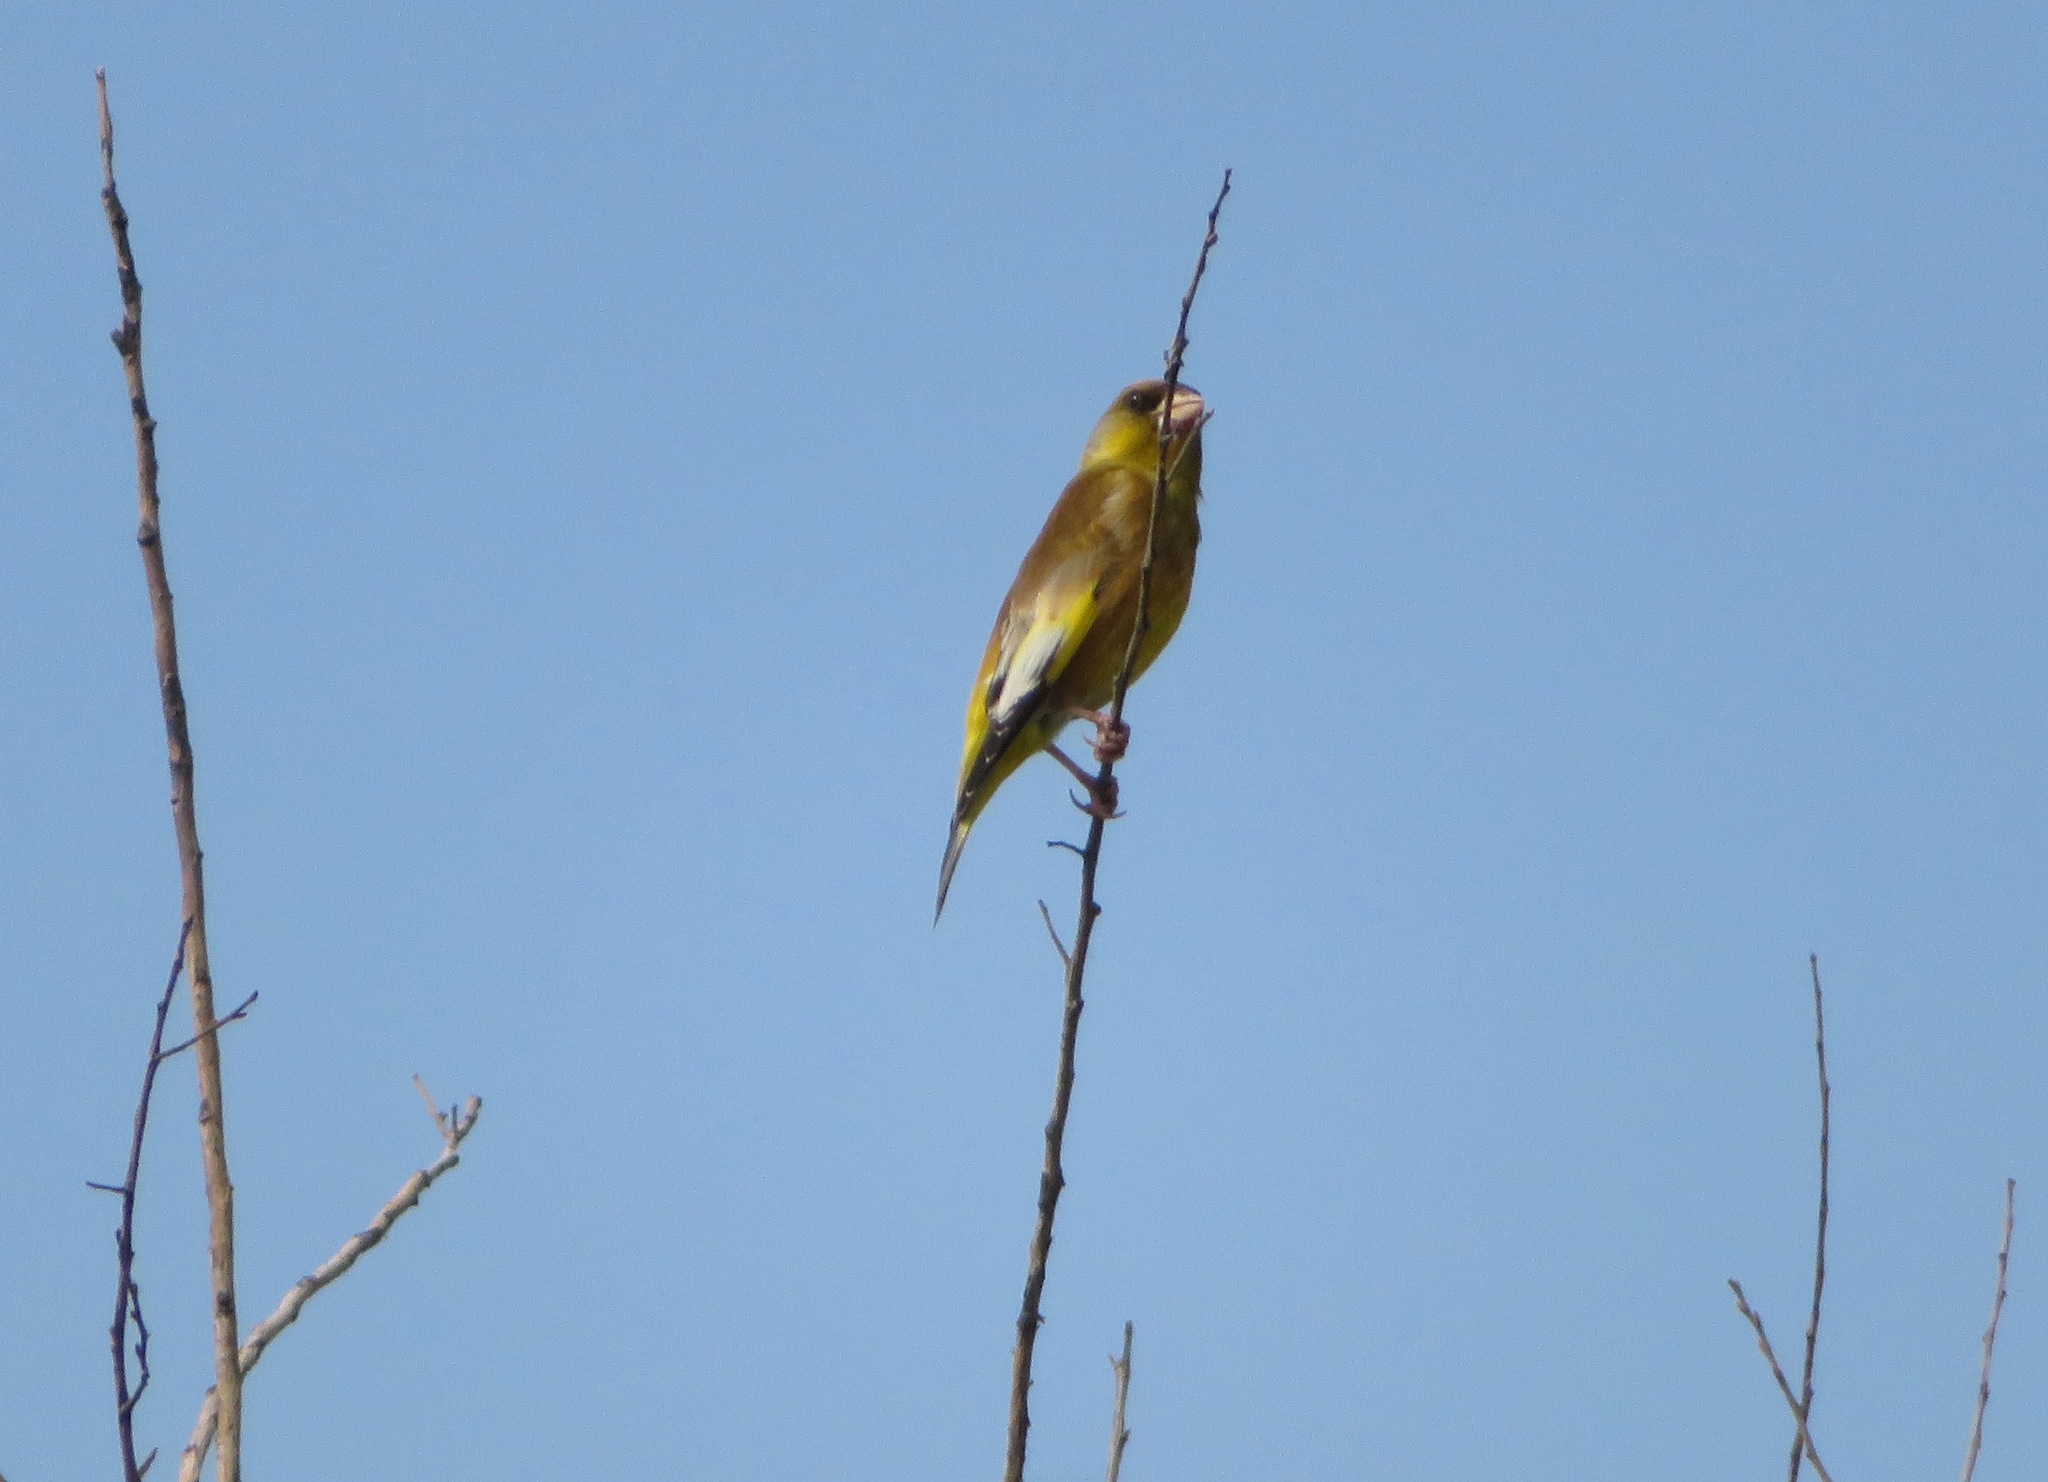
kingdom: Plantae
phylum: Tracheophyta
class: Liliopsida
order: Poales
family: Poaceae
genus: Chloris
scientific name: Chloris sinica
